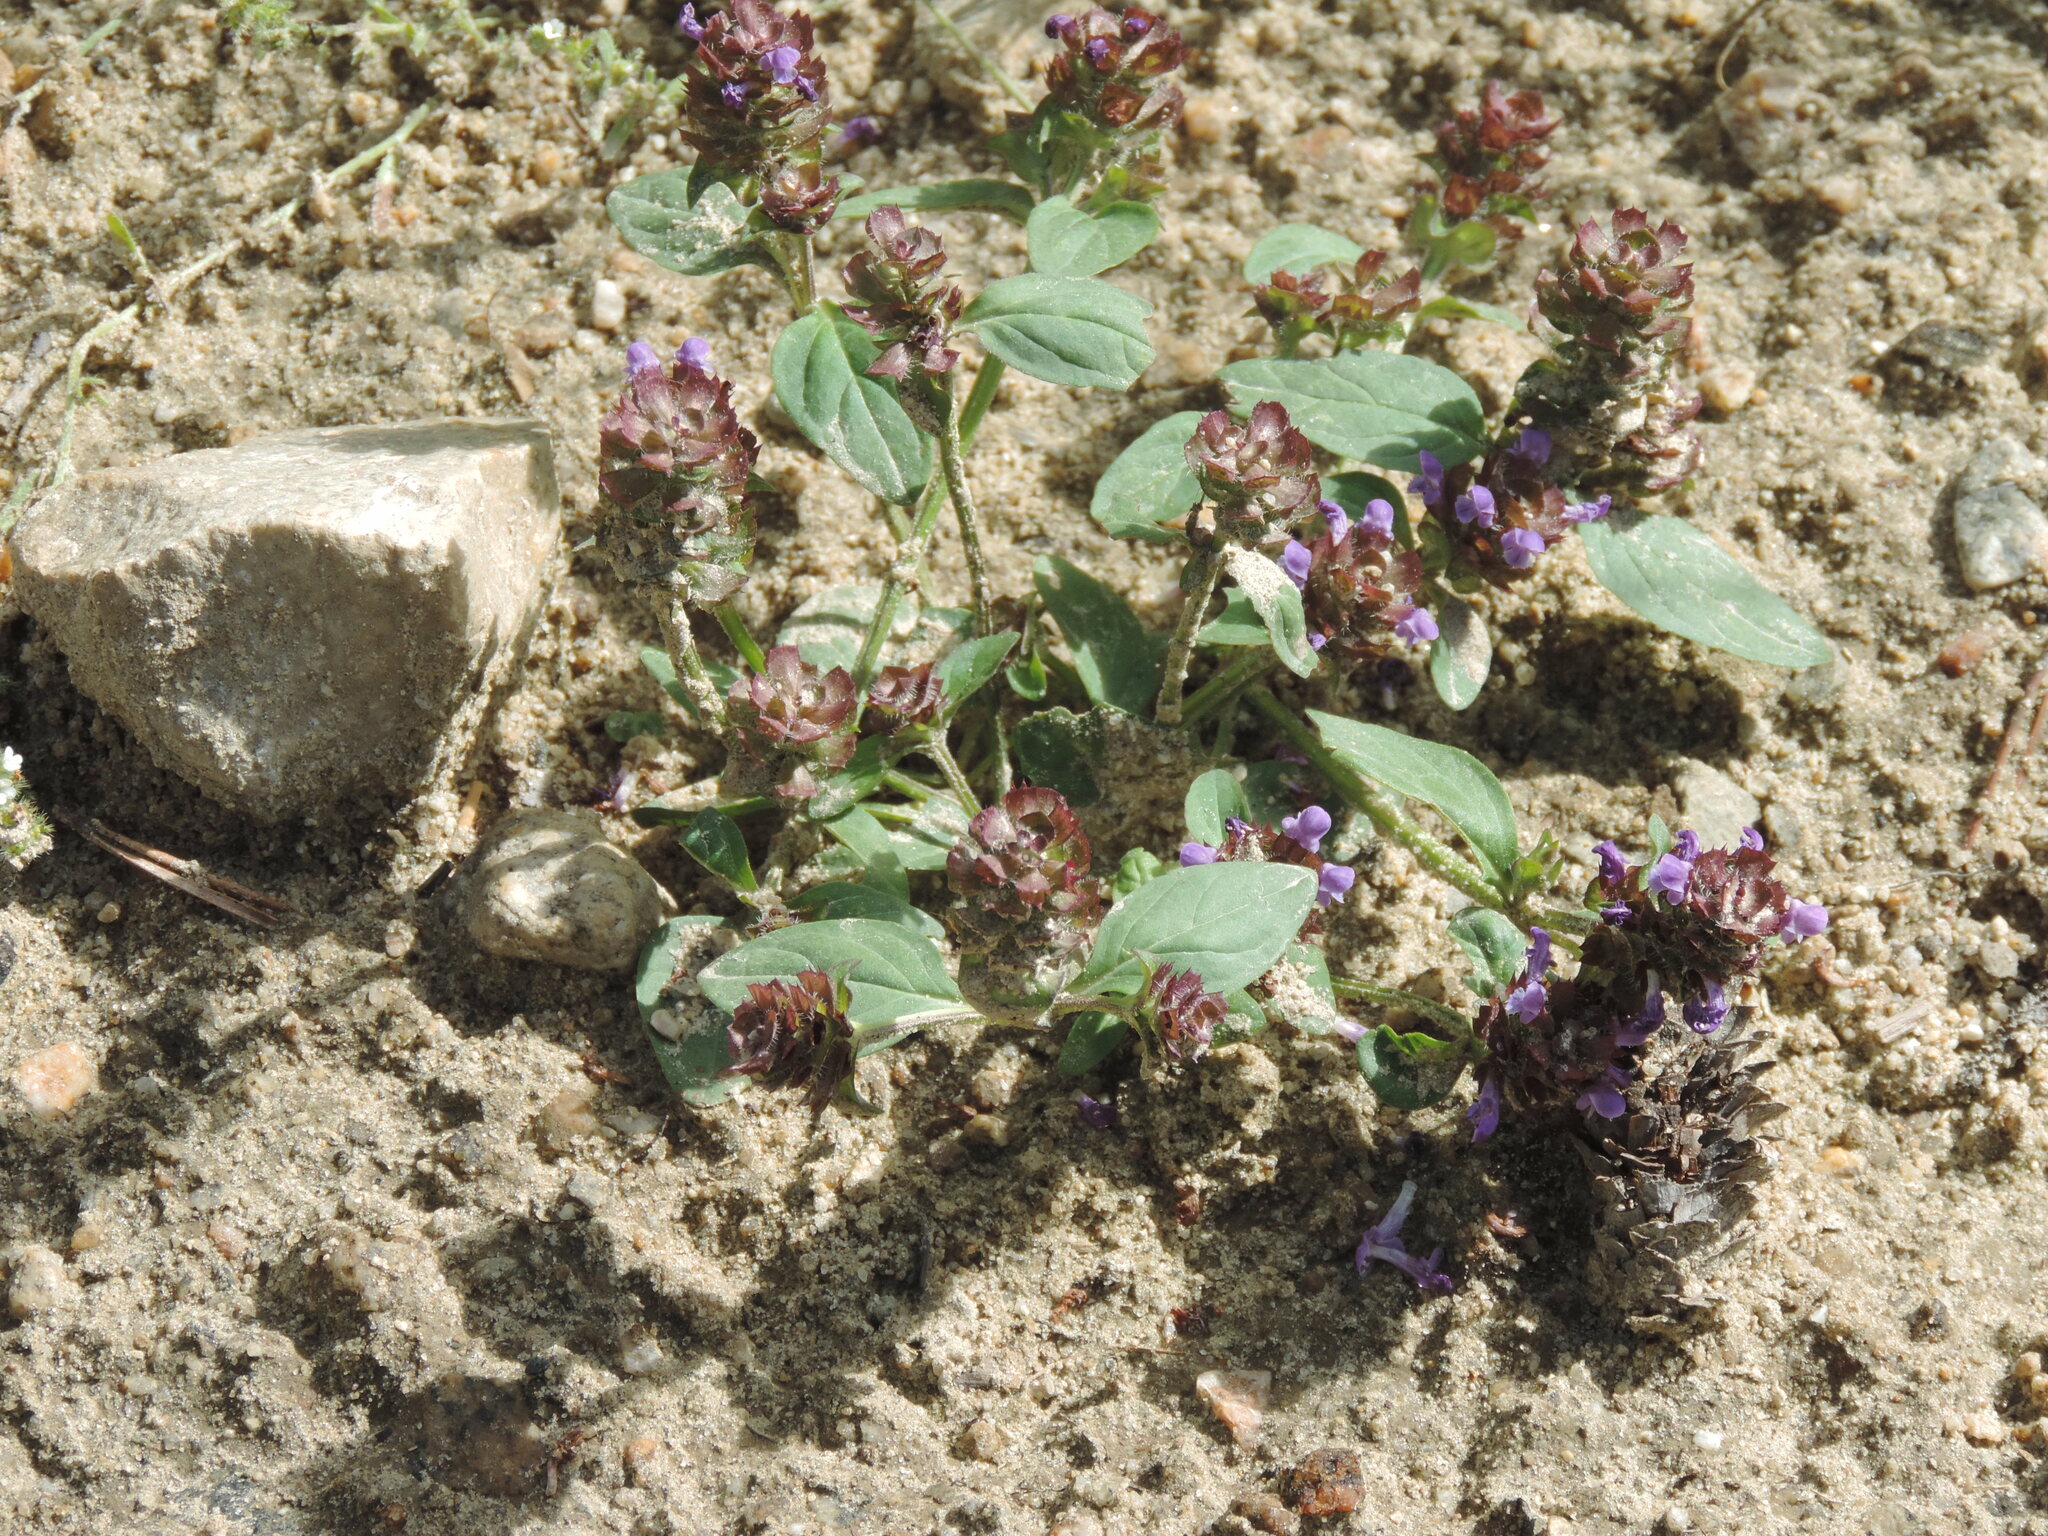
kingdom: Plantae
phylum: Tracheophyta
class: Magnoliopsida
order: Lamiales
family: Lamiaceae
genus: Prunella
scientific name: Prunella vulgaris
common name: Heal-all
